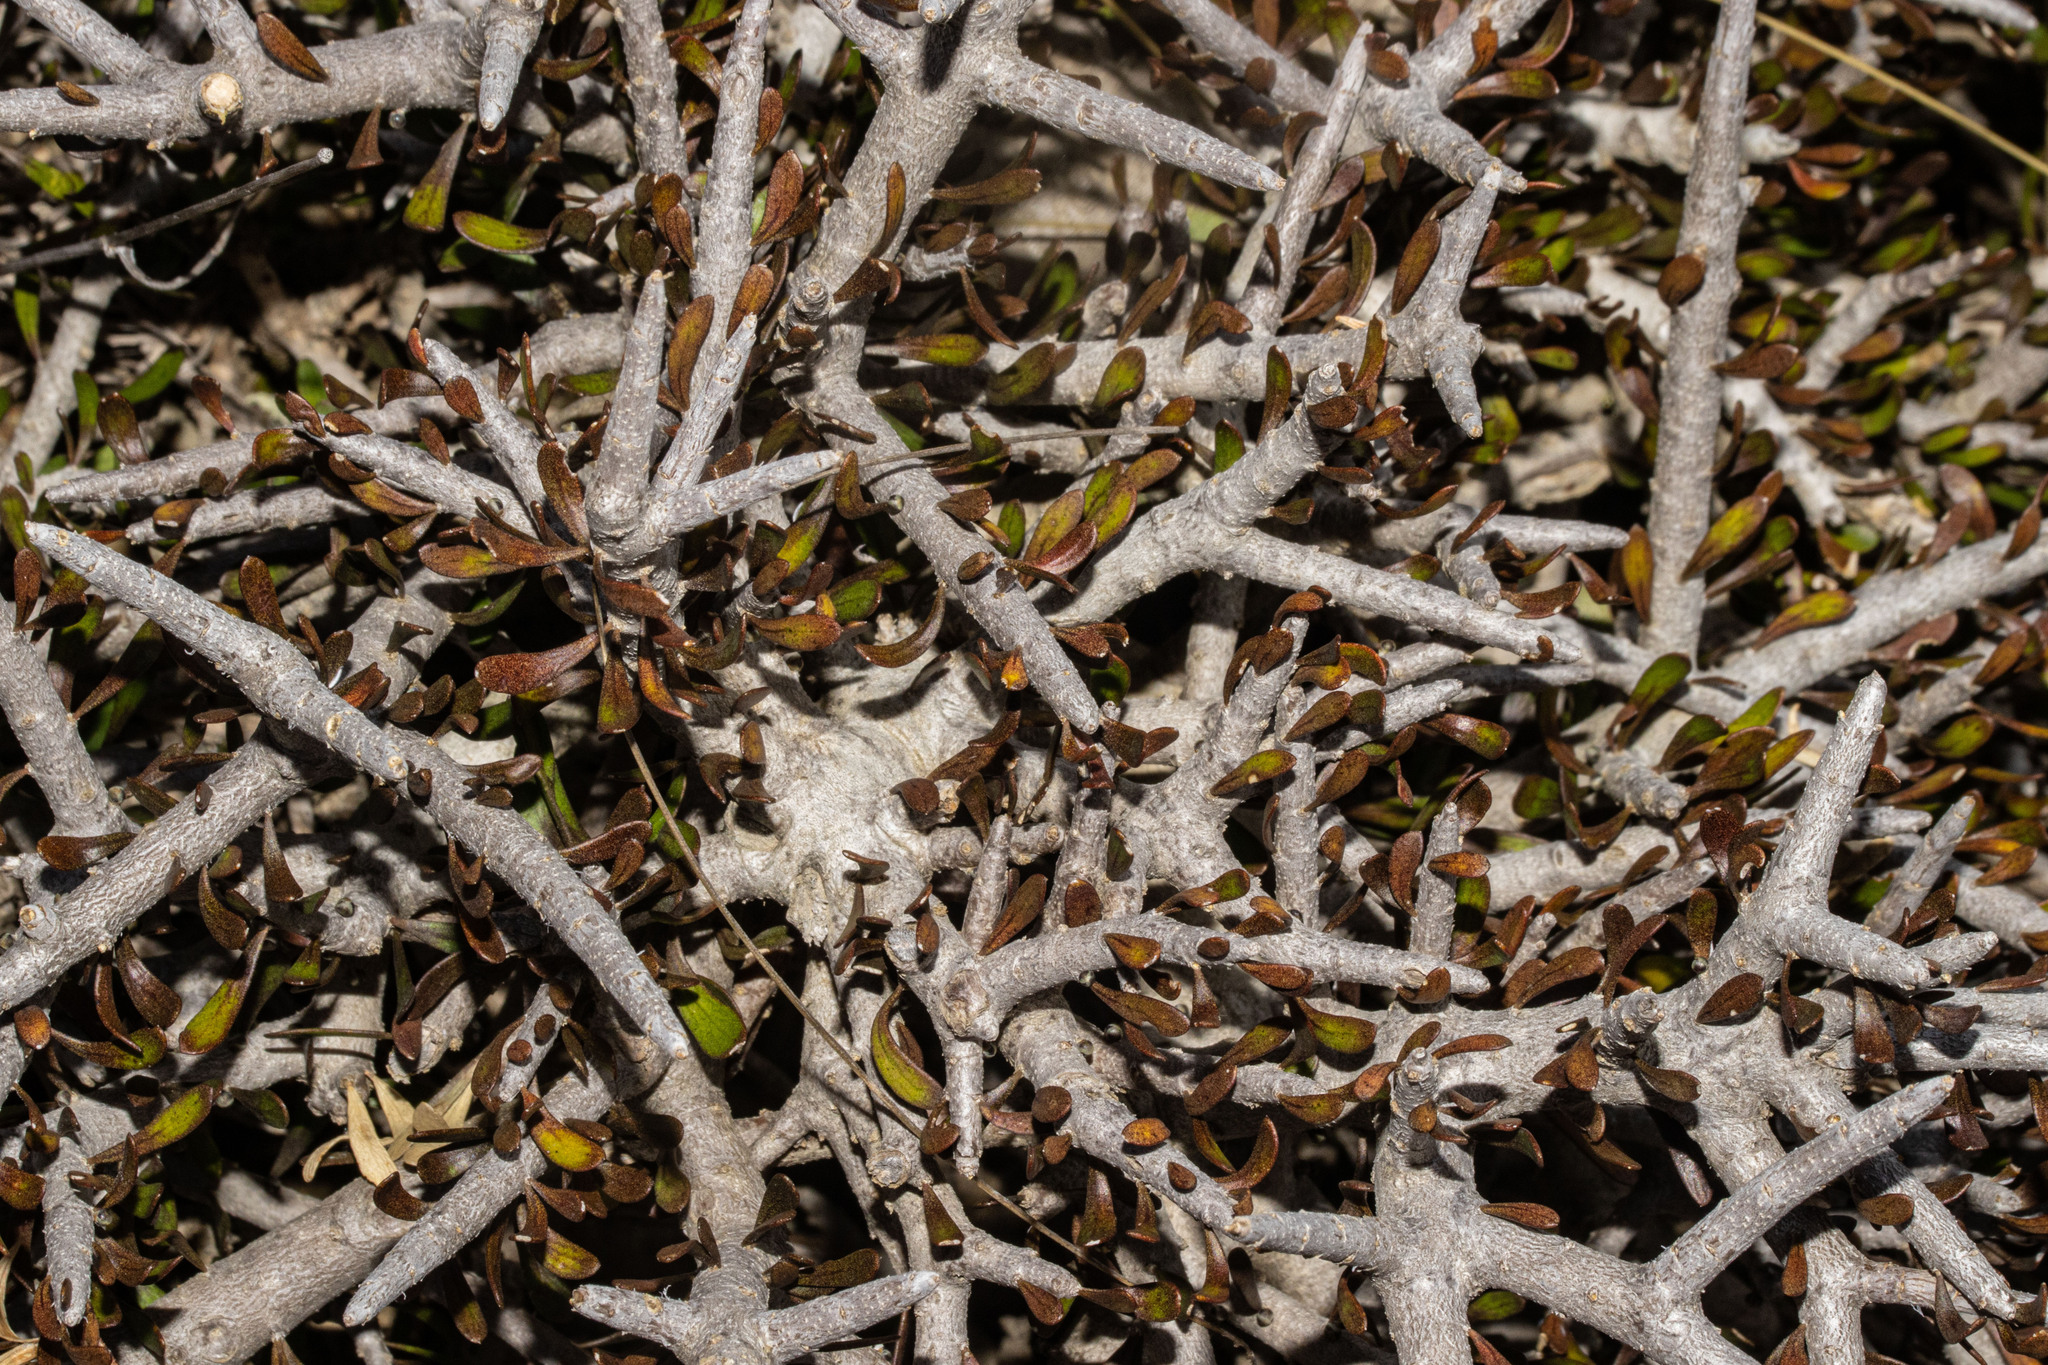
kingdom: Plantae
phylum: Tracheophyta
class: Magnoliopsida
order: Malpighiales
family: Violaceae
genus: Melicytus
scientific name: Melicytus alpinus
